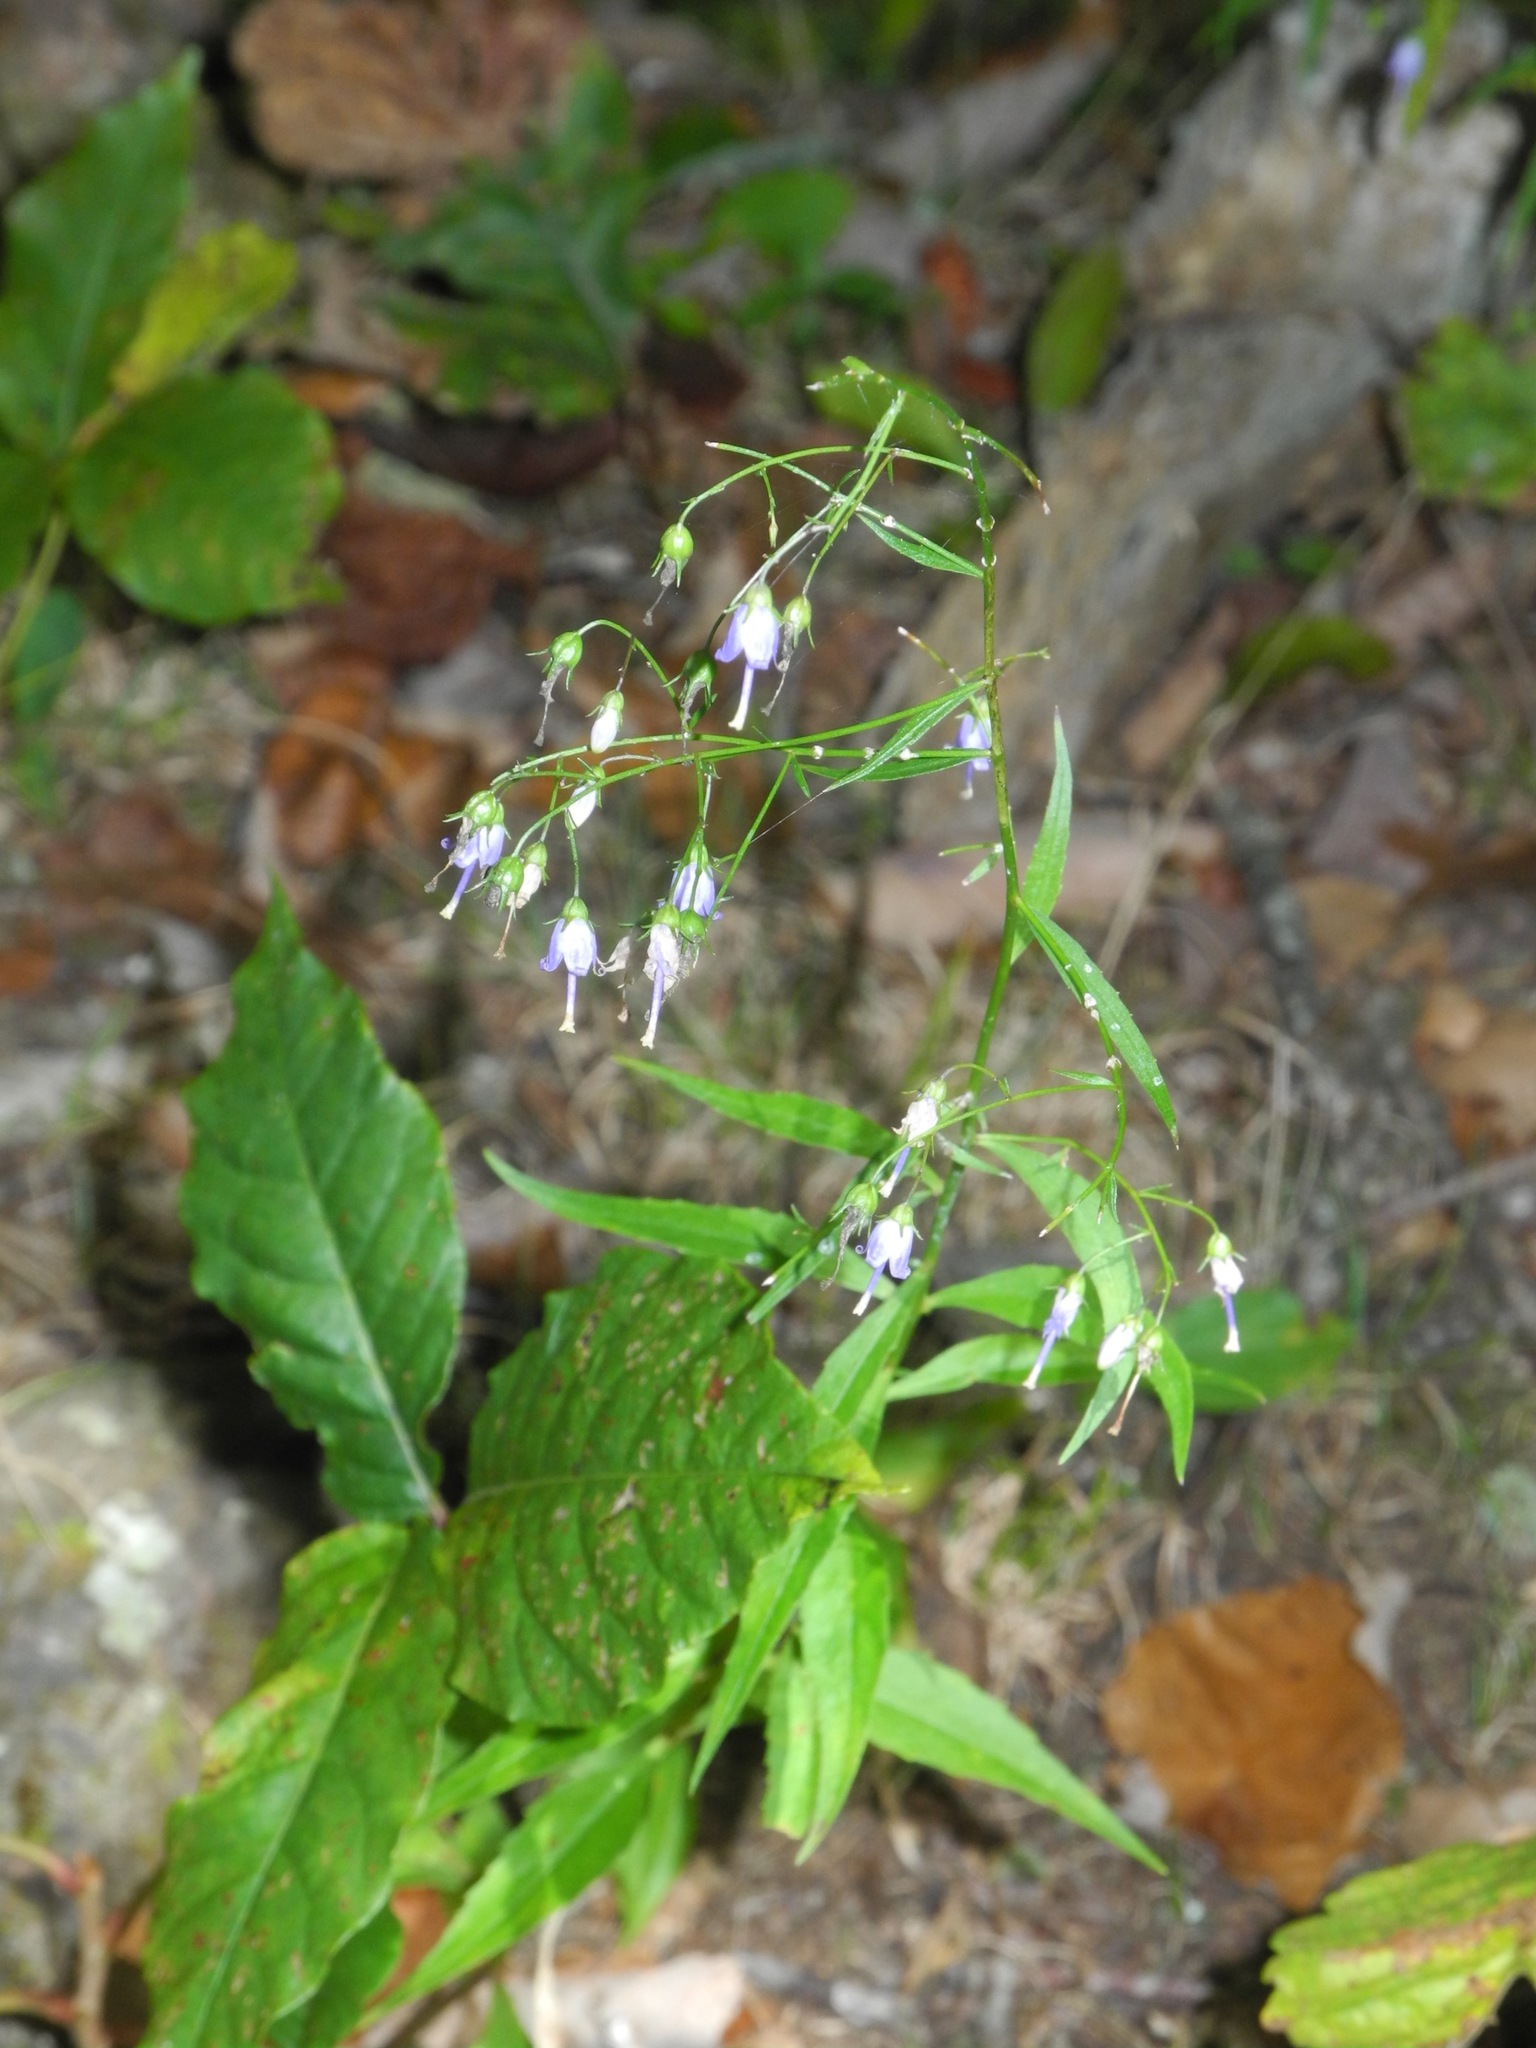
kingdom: Plantae
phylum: Tracheophyta
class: Magnoliopsida
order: Asterales
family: Campanulaceae
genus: Campanula
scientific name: Campanula divaricata
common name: Appalachian bellflower
